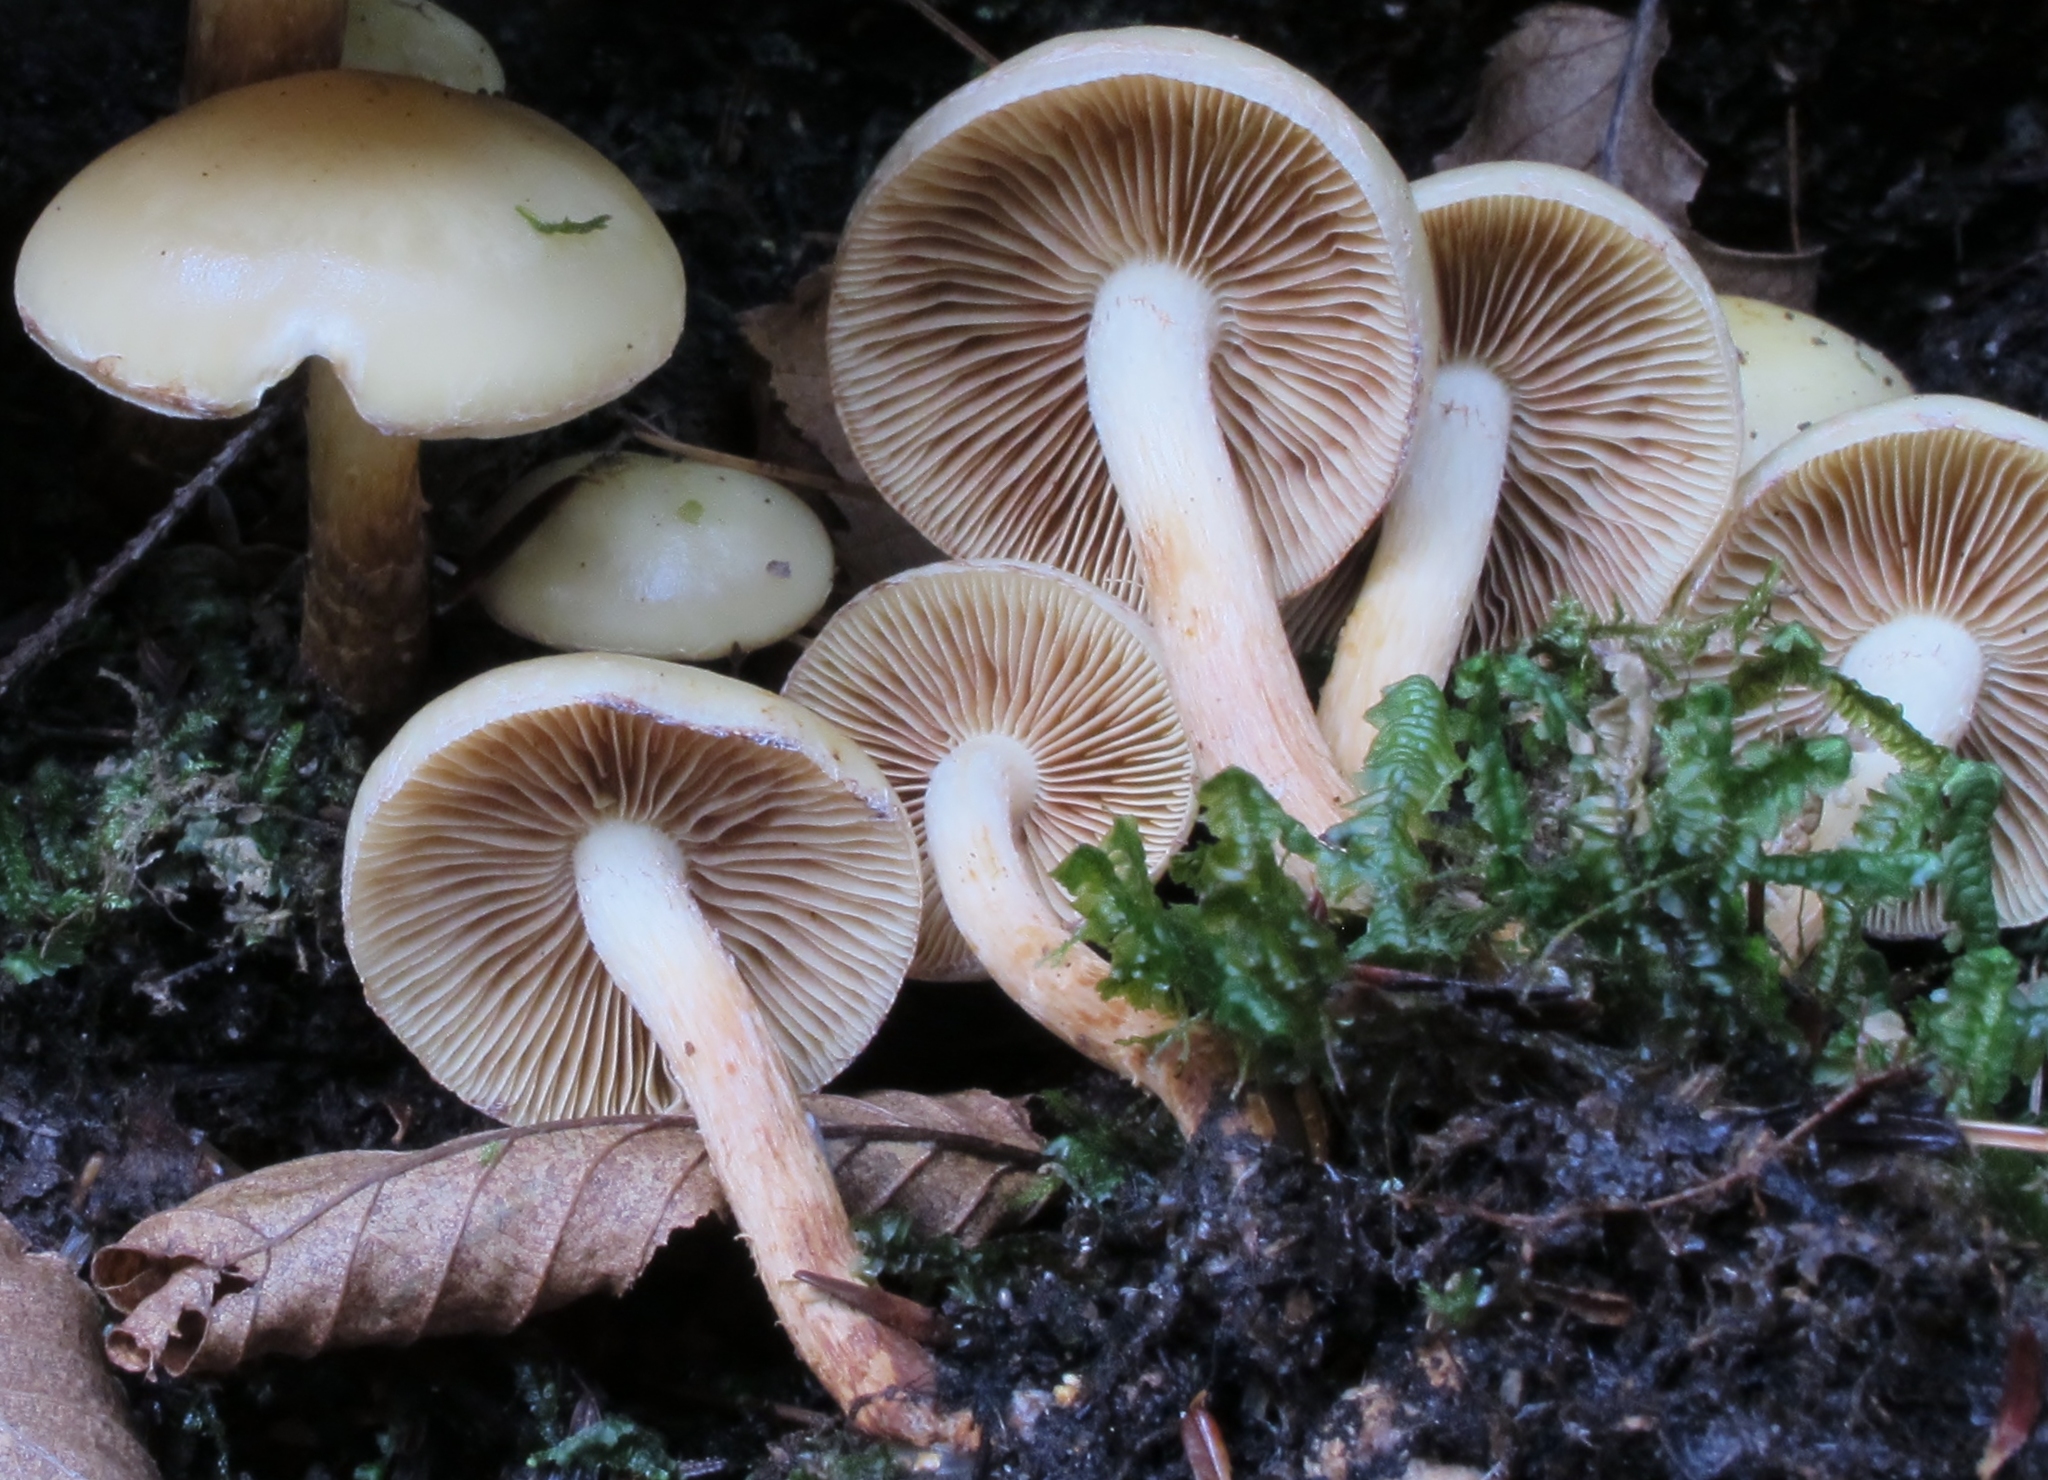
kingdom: Fungi
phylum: Basidiomycota
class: Agaricomycetes
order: Agaricales
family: Hymenogastraceae
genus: Flammula
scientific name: Flammula alnicola
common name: Alder scalycap
